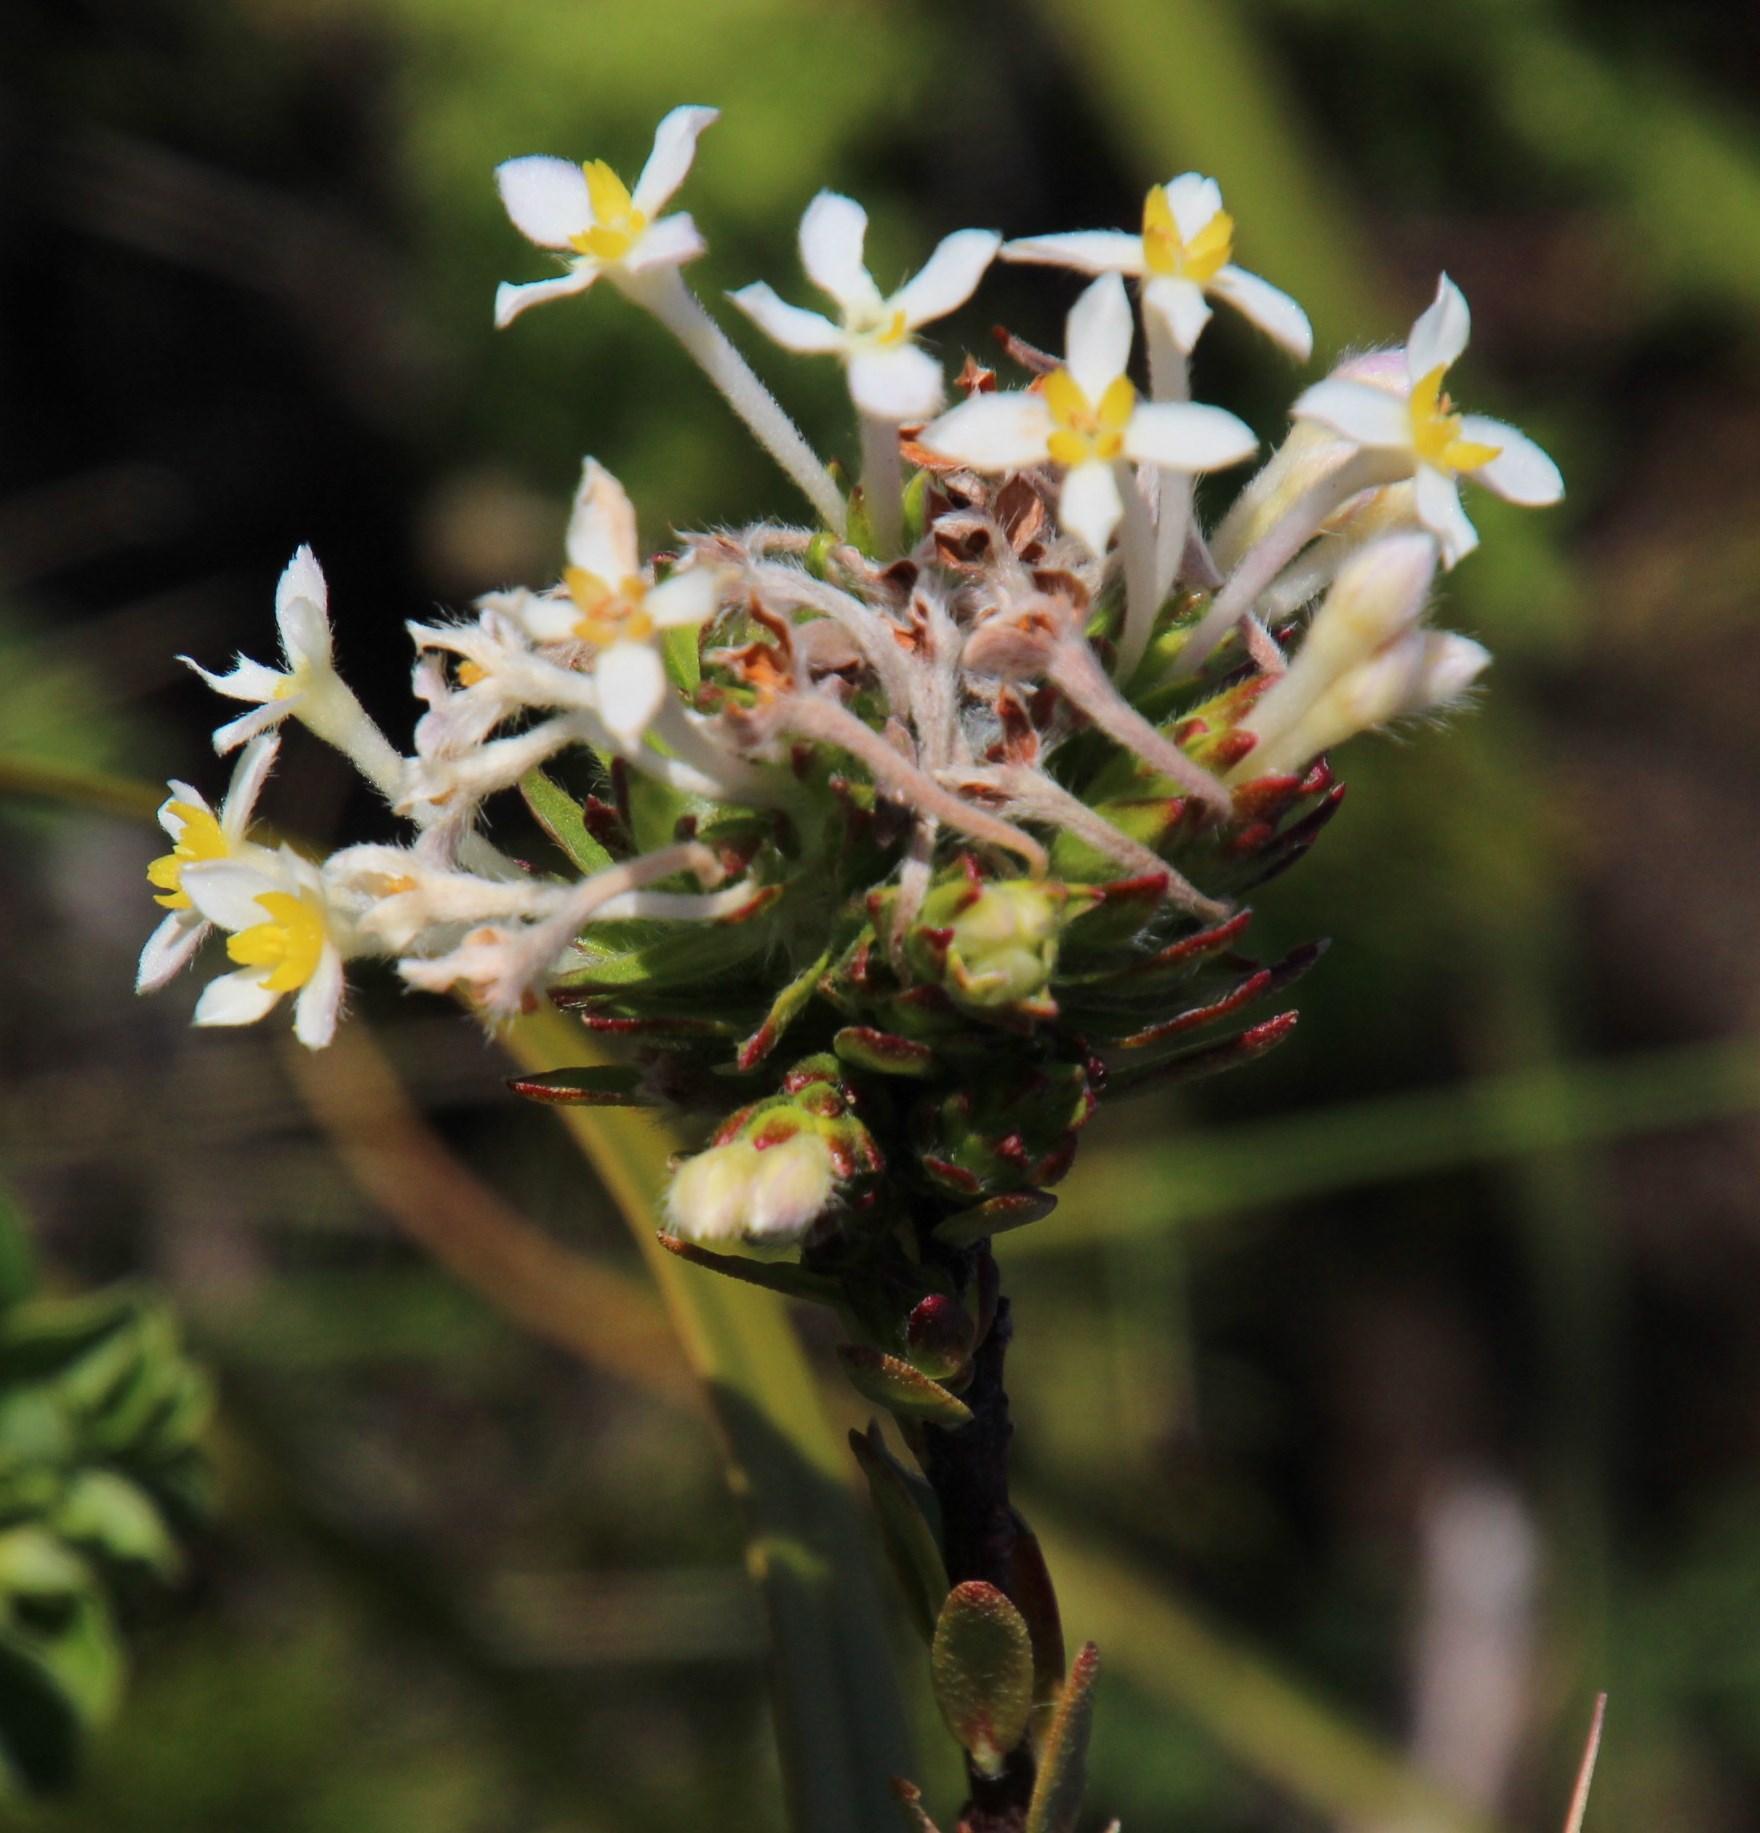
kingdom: Plantae
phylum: Tracheophyta
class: Magnoliopsida
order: Malvales
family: Thymelaeaceae
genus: Gnidia
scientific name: Gnidia tomentosa
